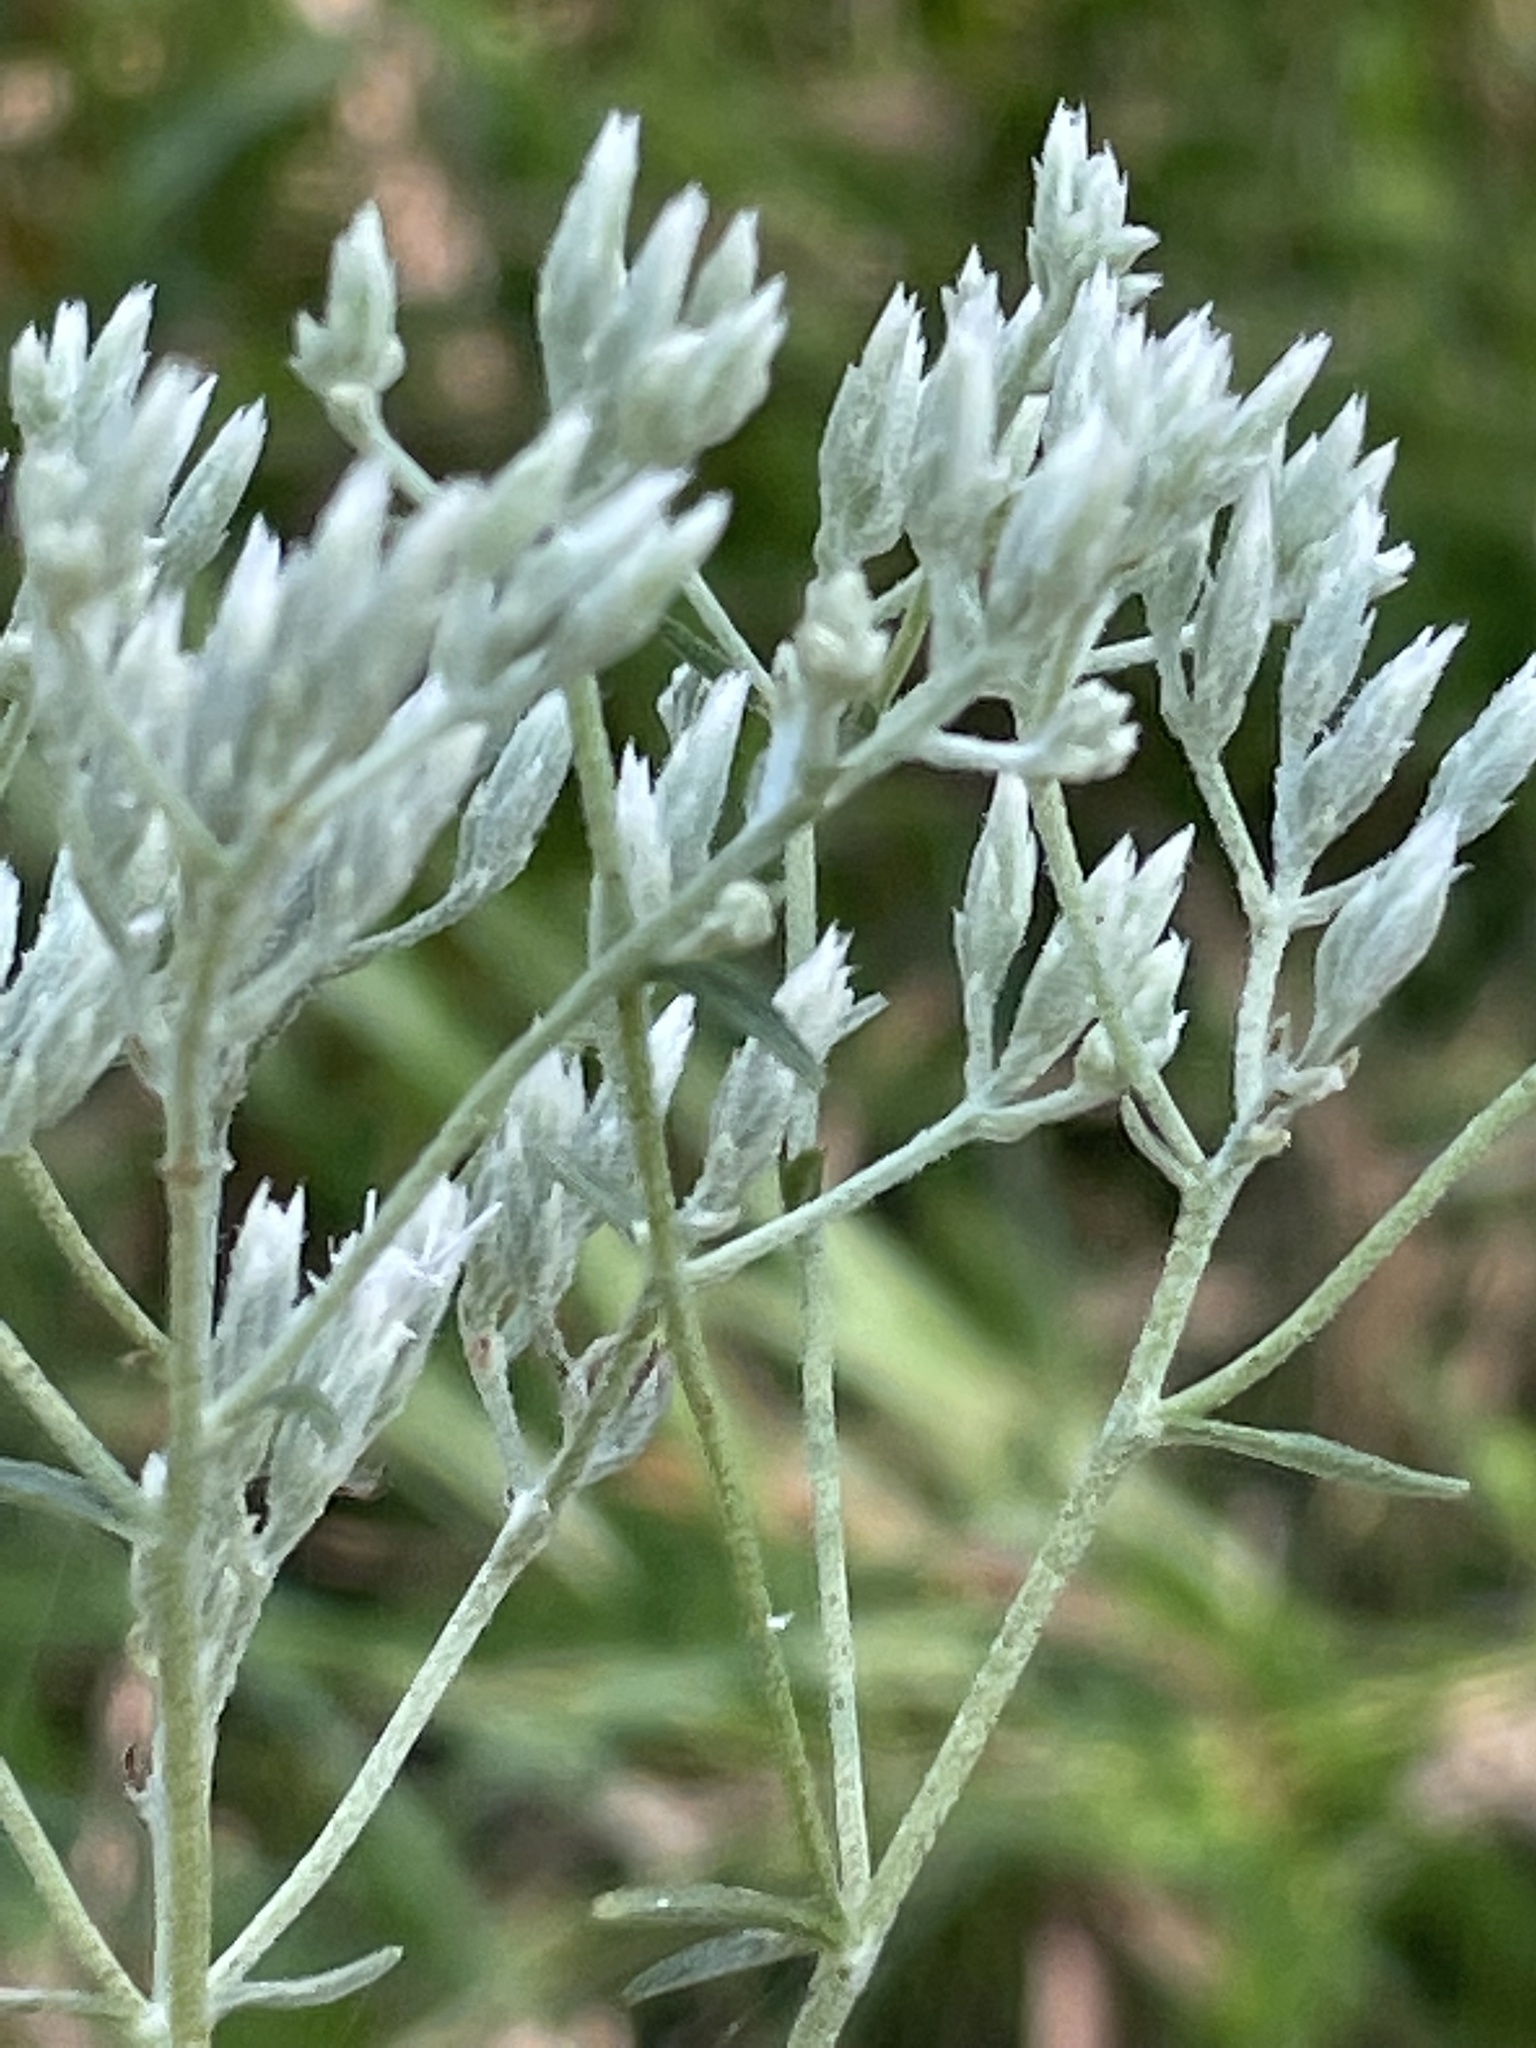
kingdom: Plantae
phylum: Tracheophyta
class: Magnoliopsida
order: Asterales
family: Asteraceae
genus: Eupatorium
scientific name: Eupatorium leucolepis
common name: Justiceweed
